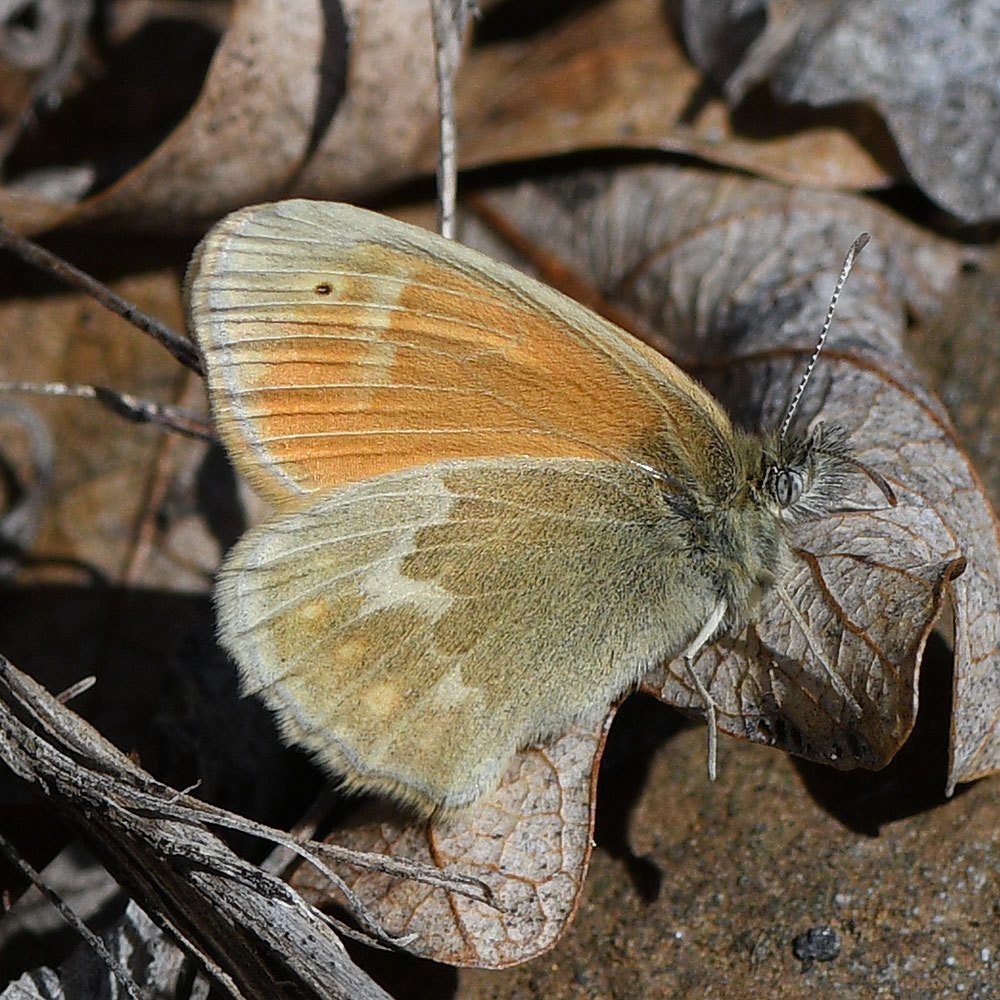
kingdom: Animalia
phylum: Arthropoda
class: Insecta
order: Lepidoptera
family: Nymphalidae
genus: Coenonympha
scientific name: Coenonympha california
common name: Common ringlet
